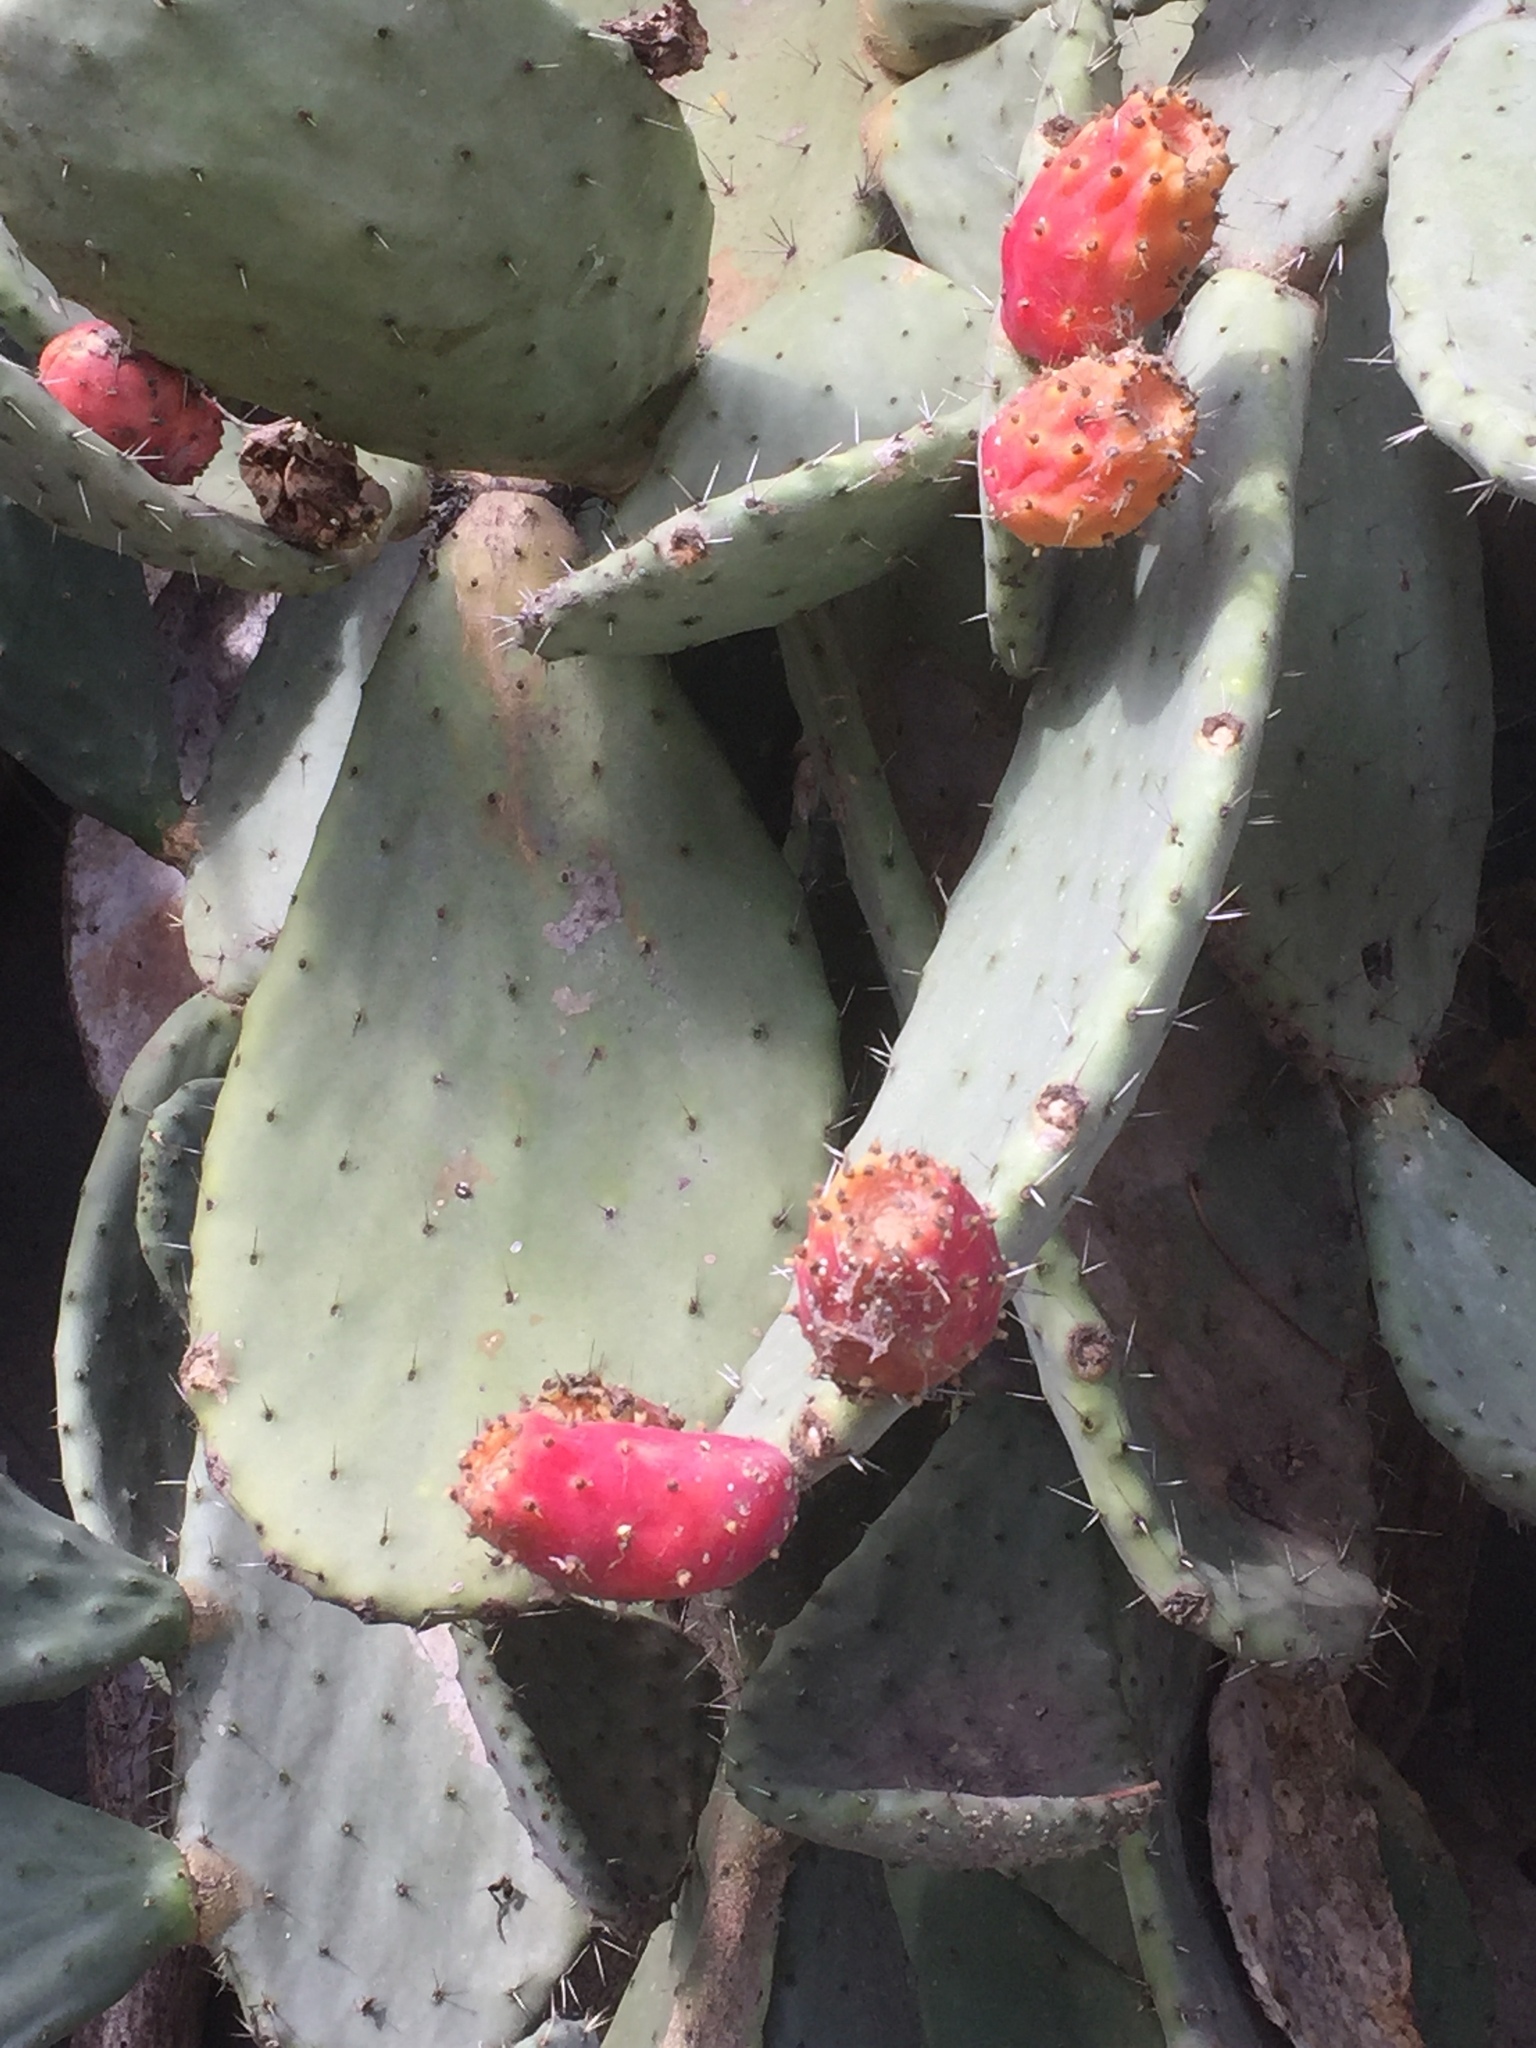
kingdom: Plantae
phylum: Tracheophyta
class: Magnoliopsida
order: Caryophyllales
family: Cactaceae
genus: Opuntia
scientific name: Opuntia ficus-indica
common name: Barbary fig
